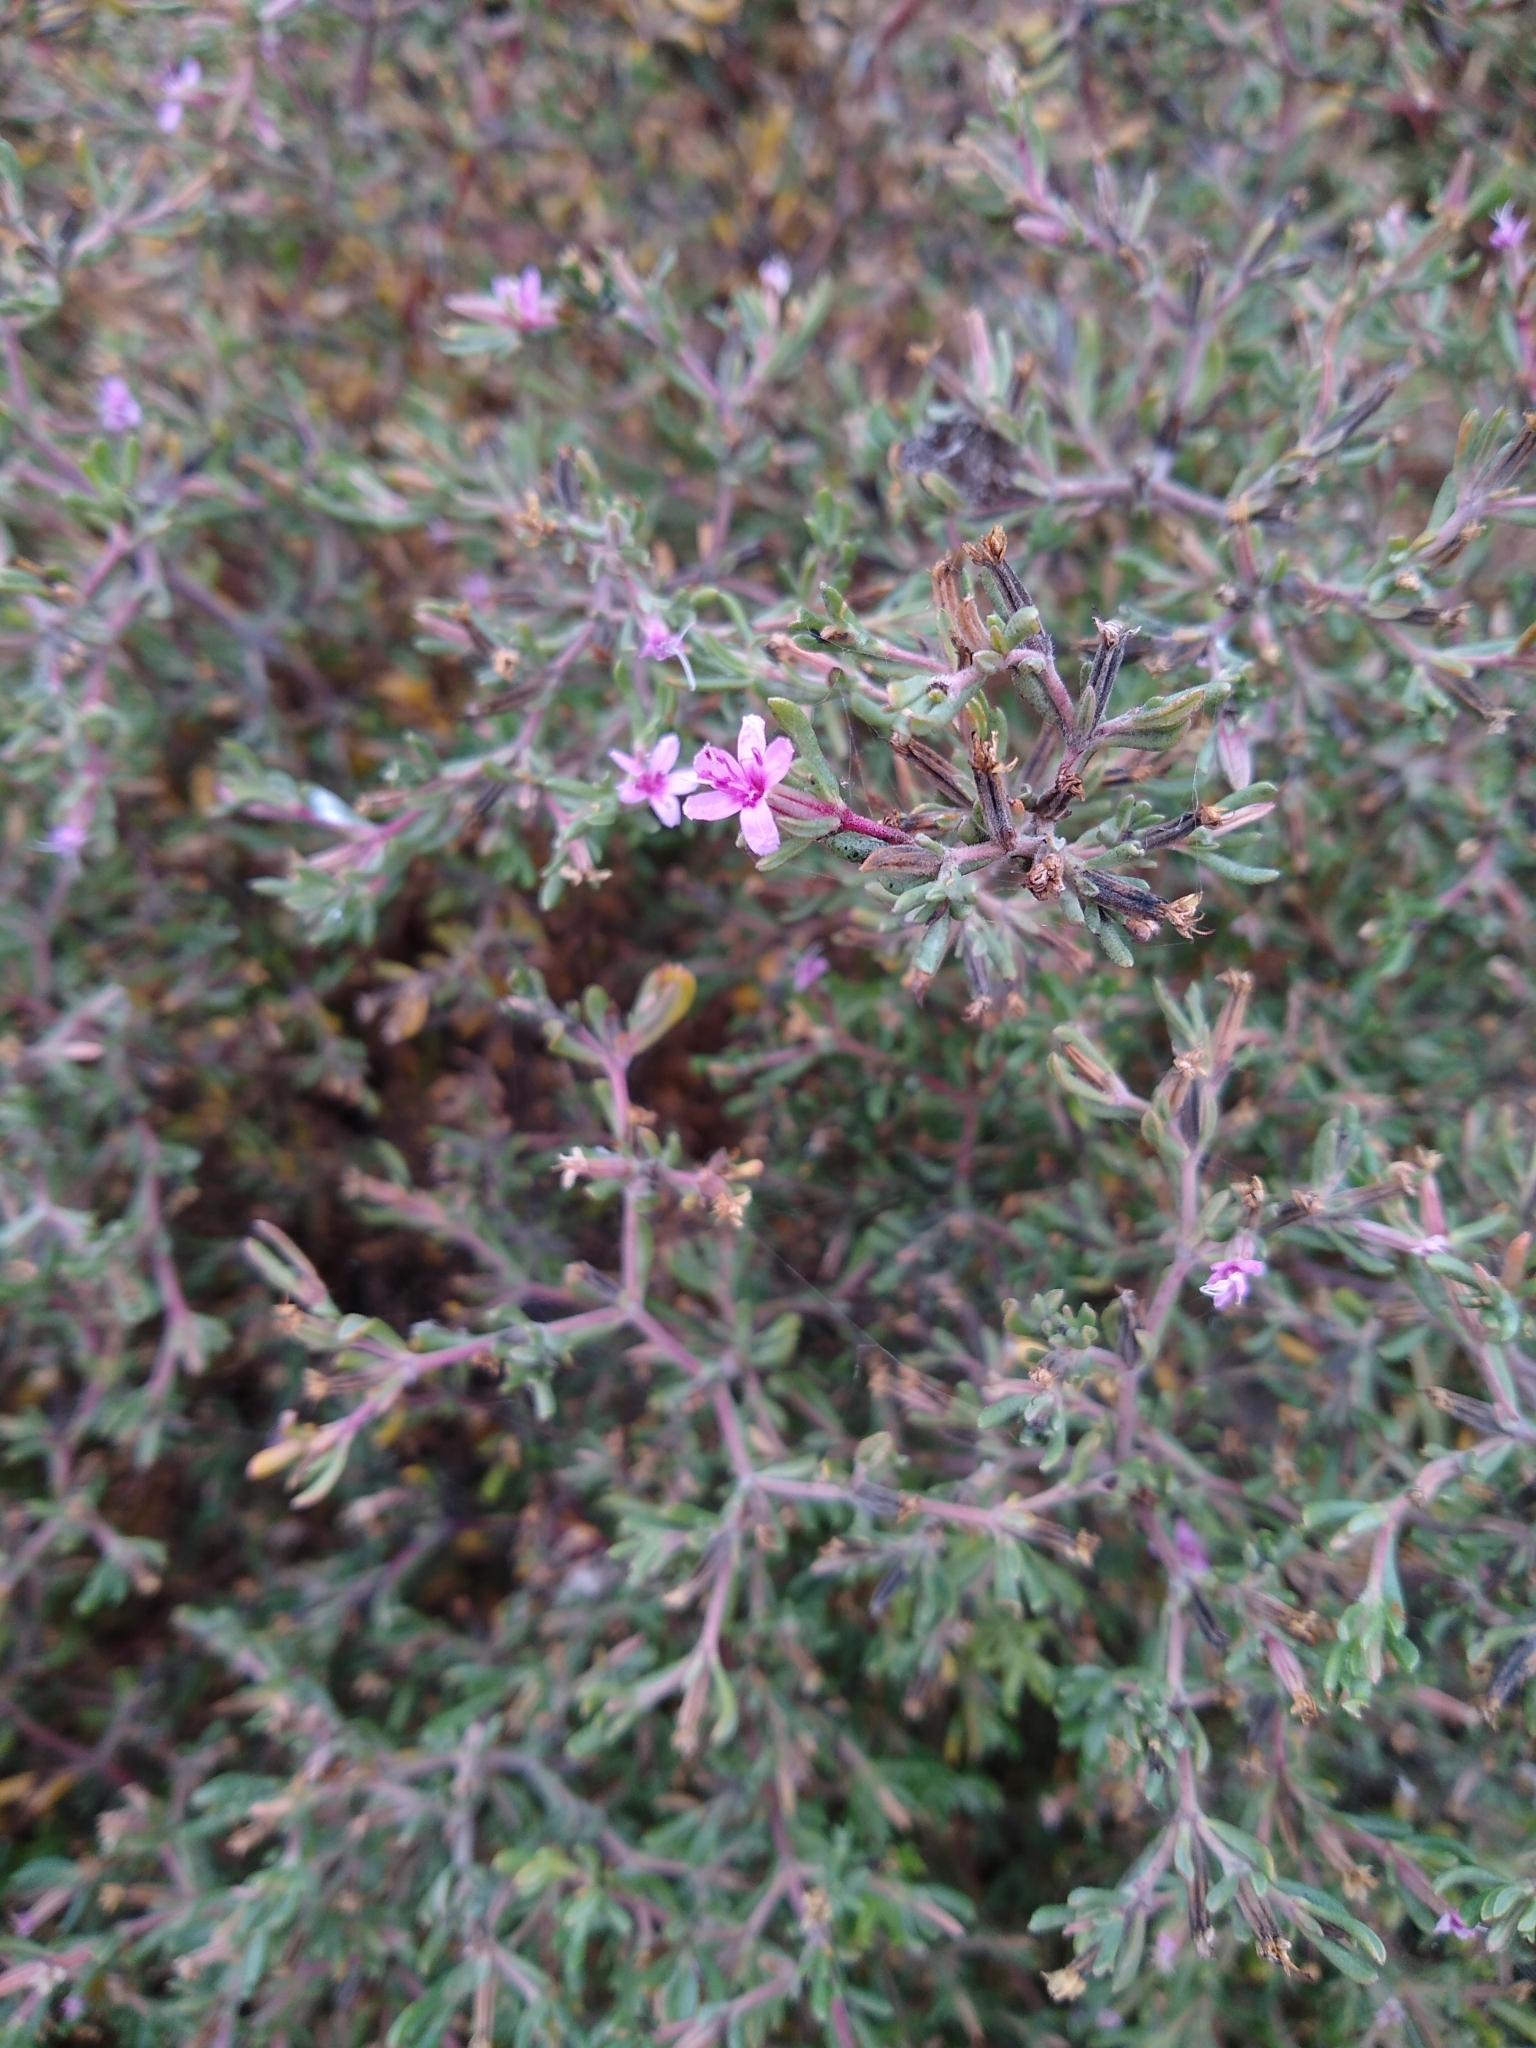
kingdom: Plantae
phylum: Tracheophyta
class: Magnoliopsida
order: Caryophyllales
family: Frankeniaceae
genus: Frankenia
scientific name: Frankenia salina
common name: Alkali seaheath
